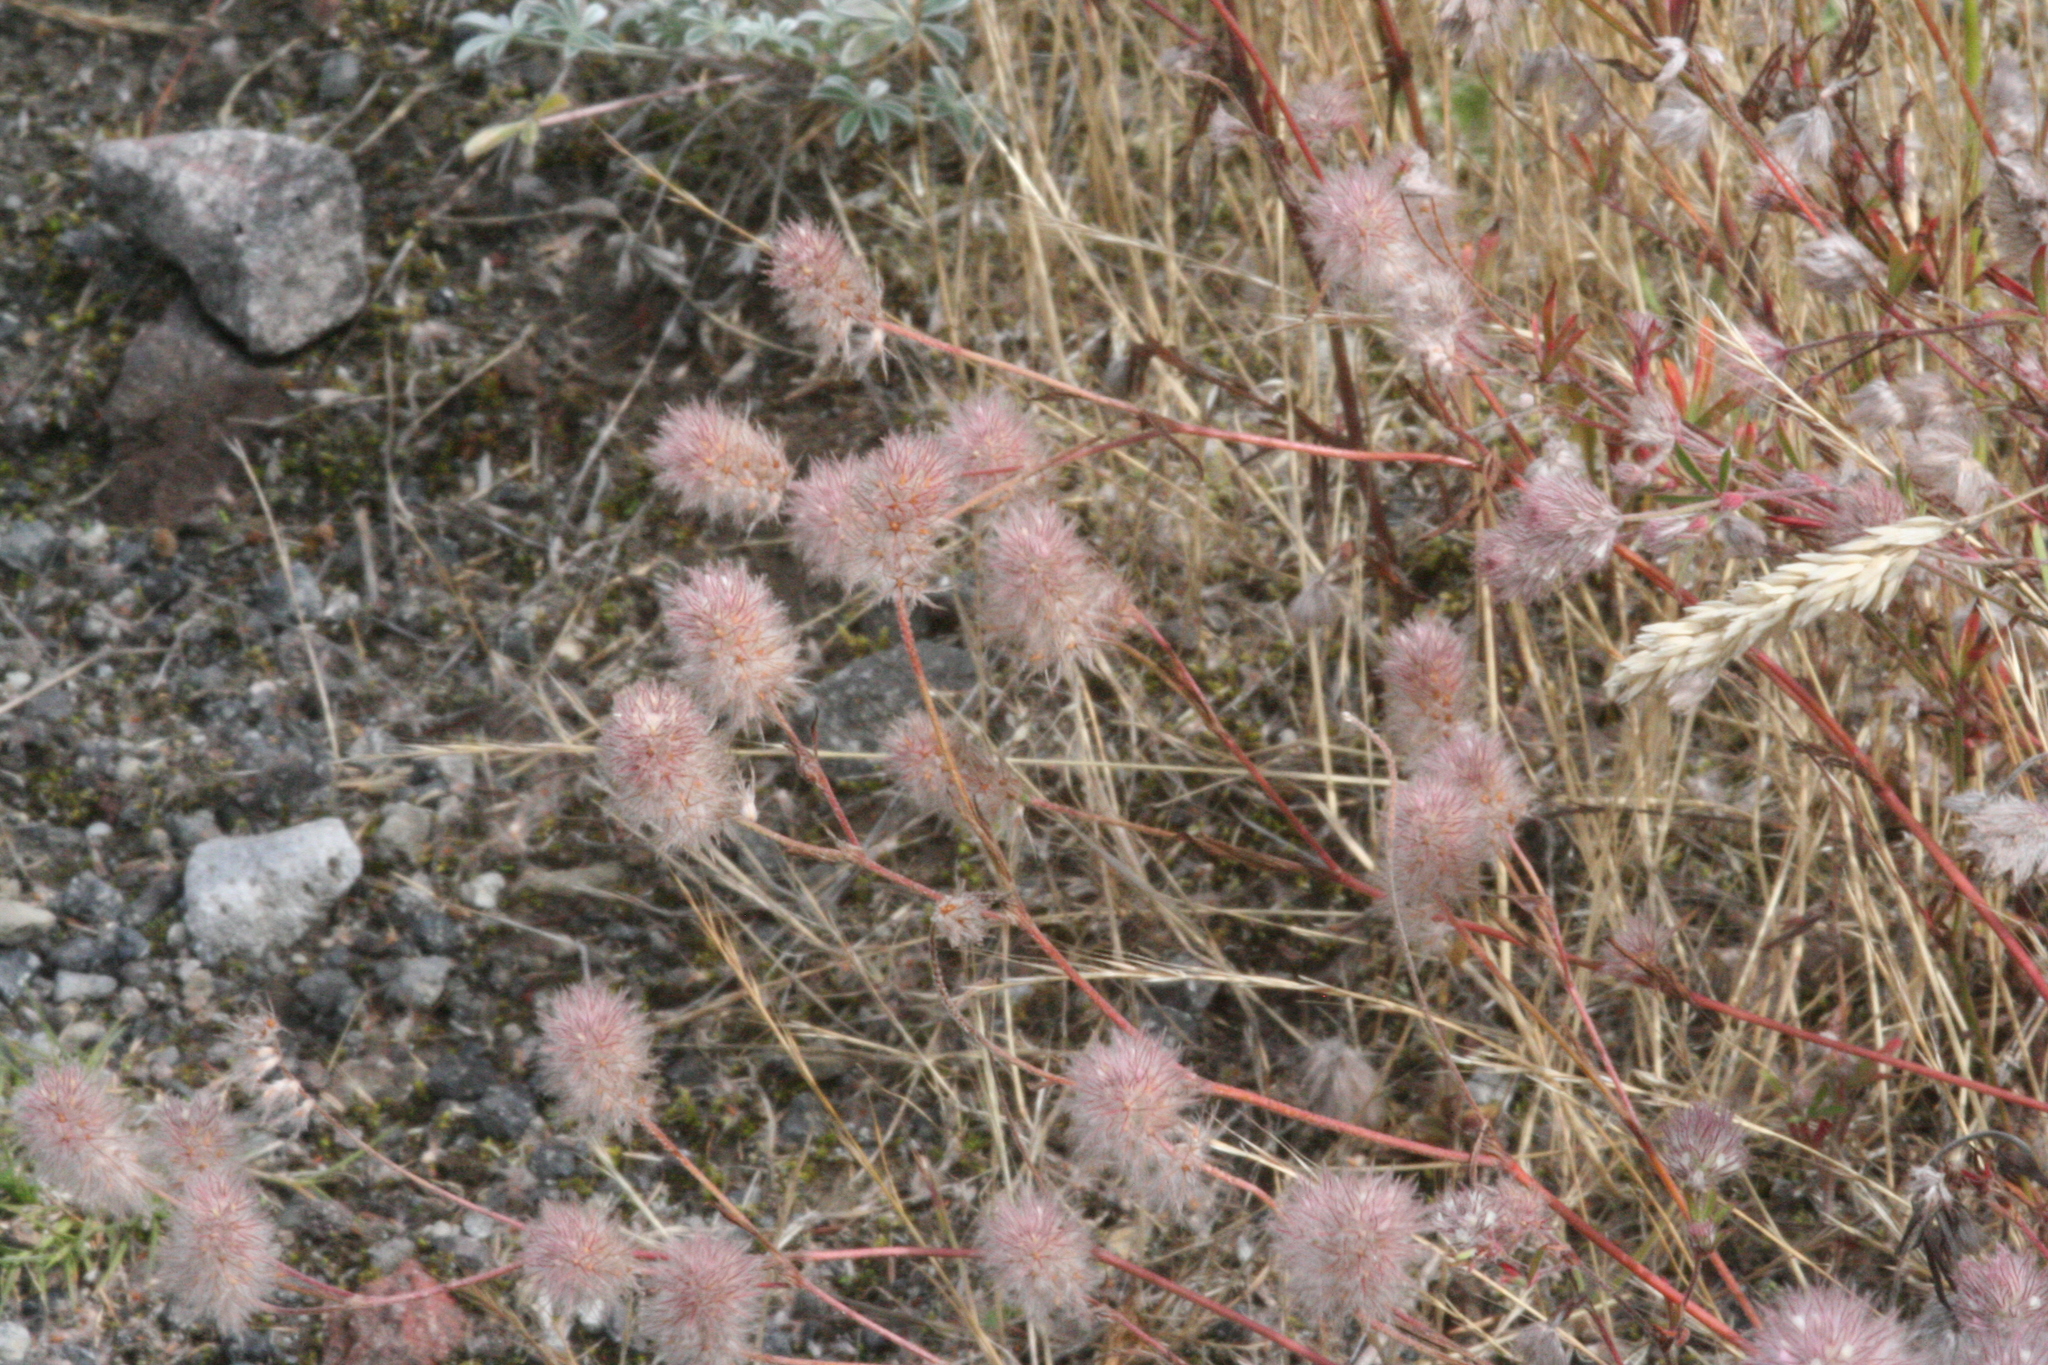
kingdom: Plantae
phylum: Tracheophyta
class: Magnoliopsida
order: Fabales
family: Fabaceae
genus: Trifolium
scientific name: Trifolium arvense
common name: Hare's-foot clover
